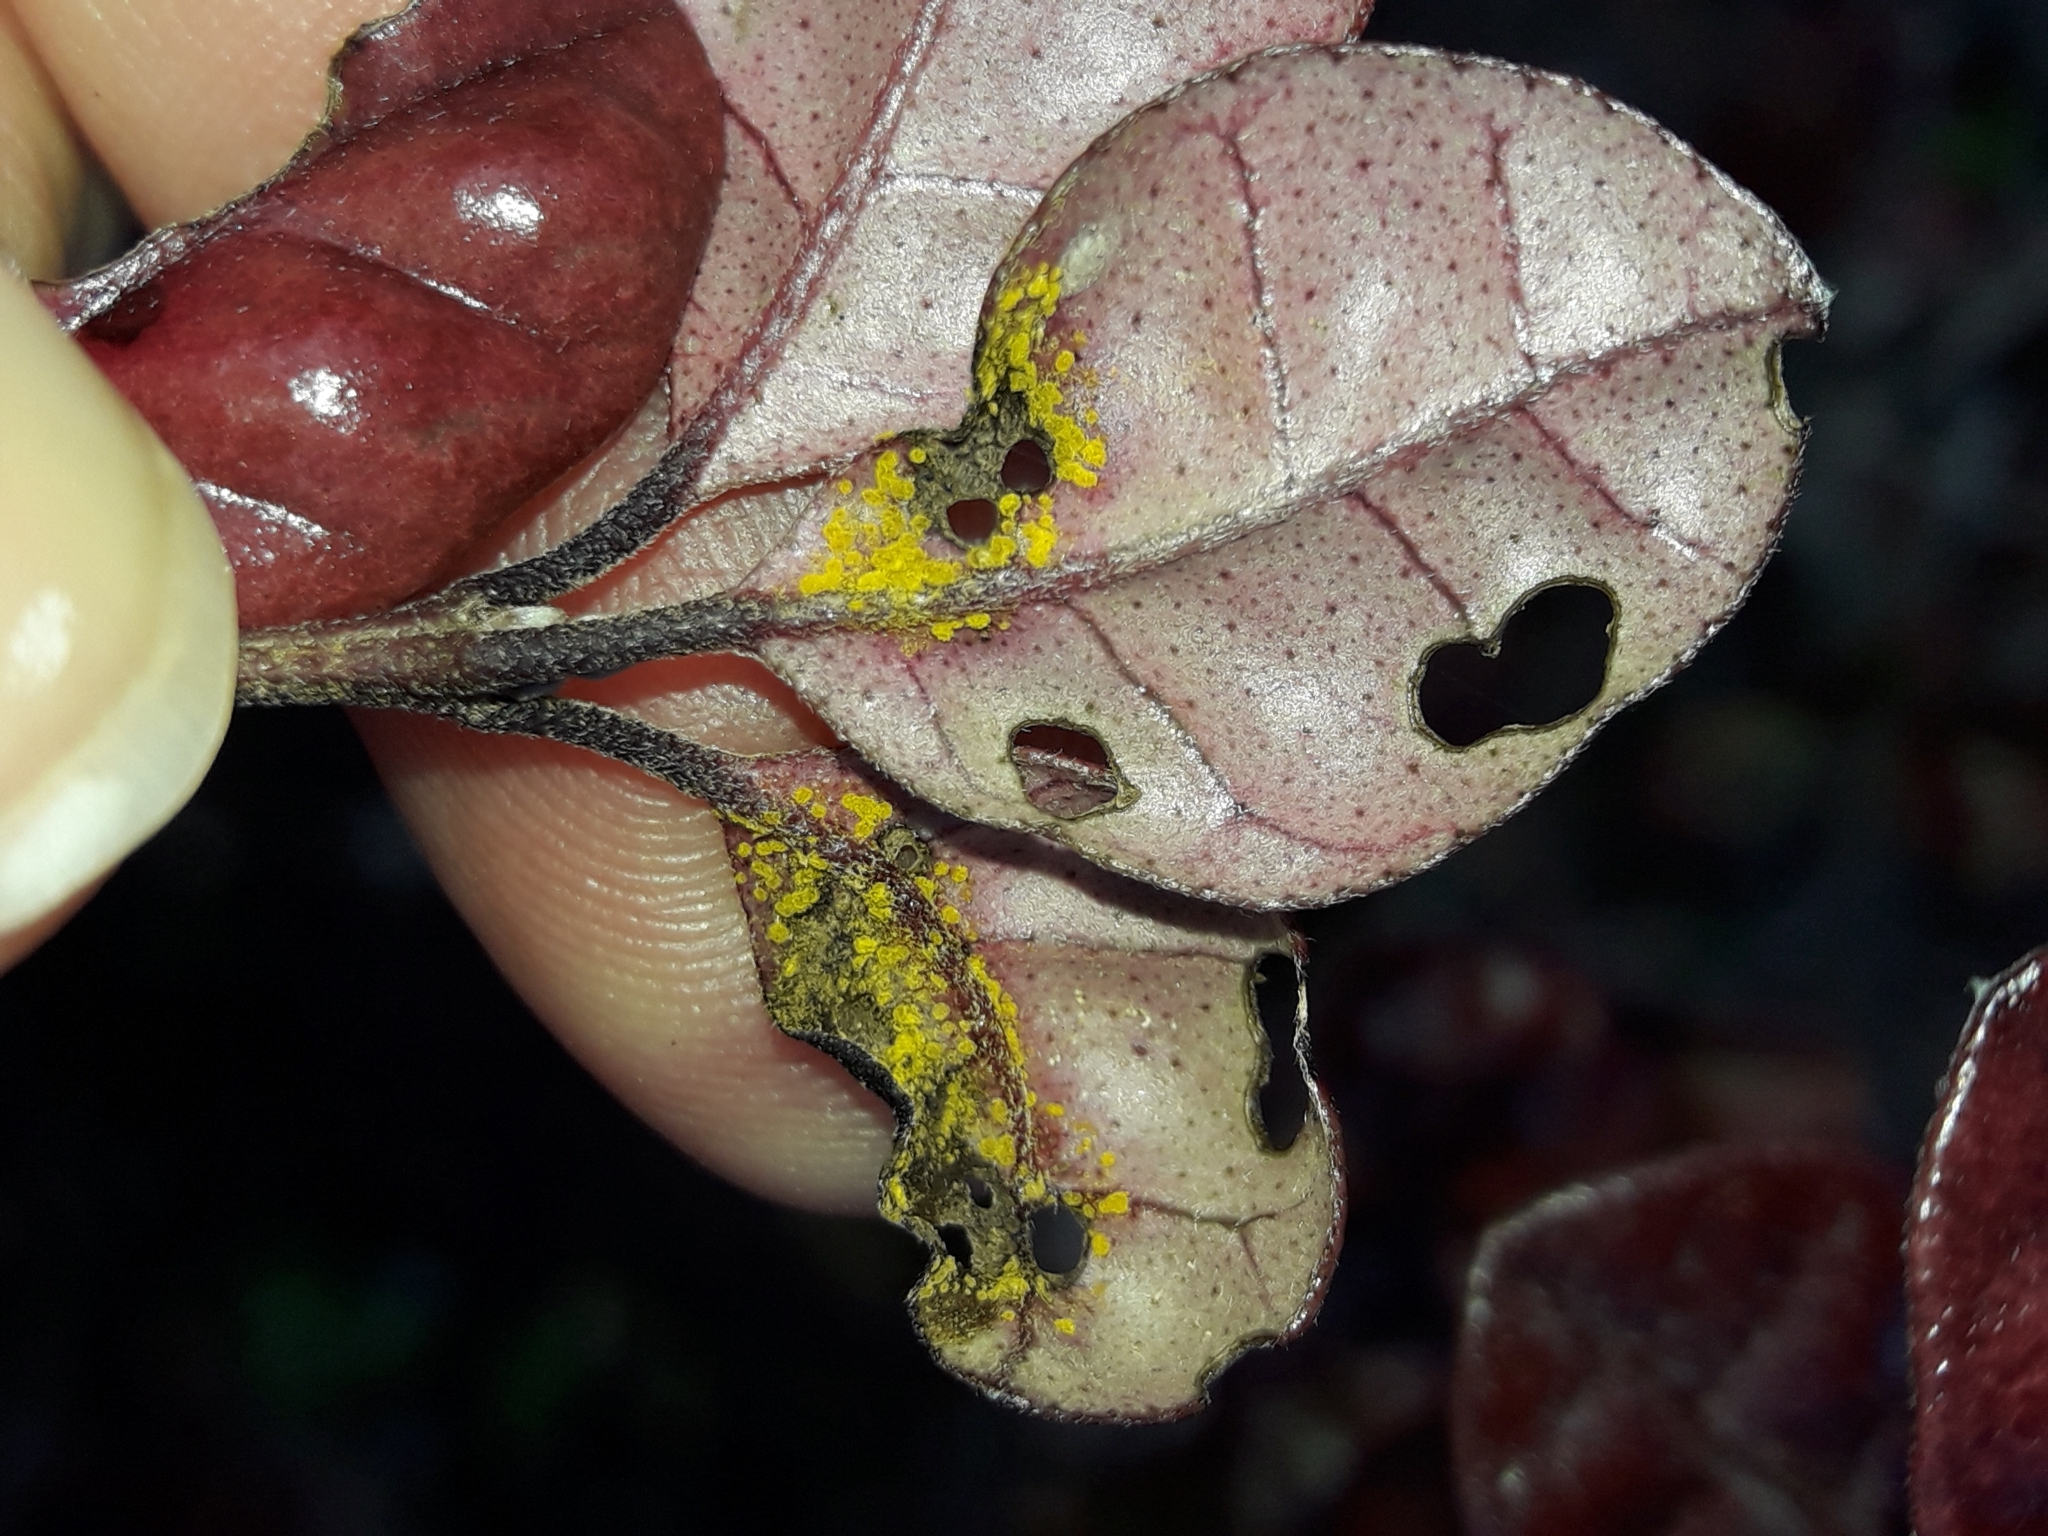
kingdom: Fungi
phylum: Basidiomycota
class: Pucciniomycetes
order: Pucciniales
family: Sphaerophragmiaceae
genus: Austropuccinia
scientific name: Austropuccinia psidii
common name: Myrtle rust
